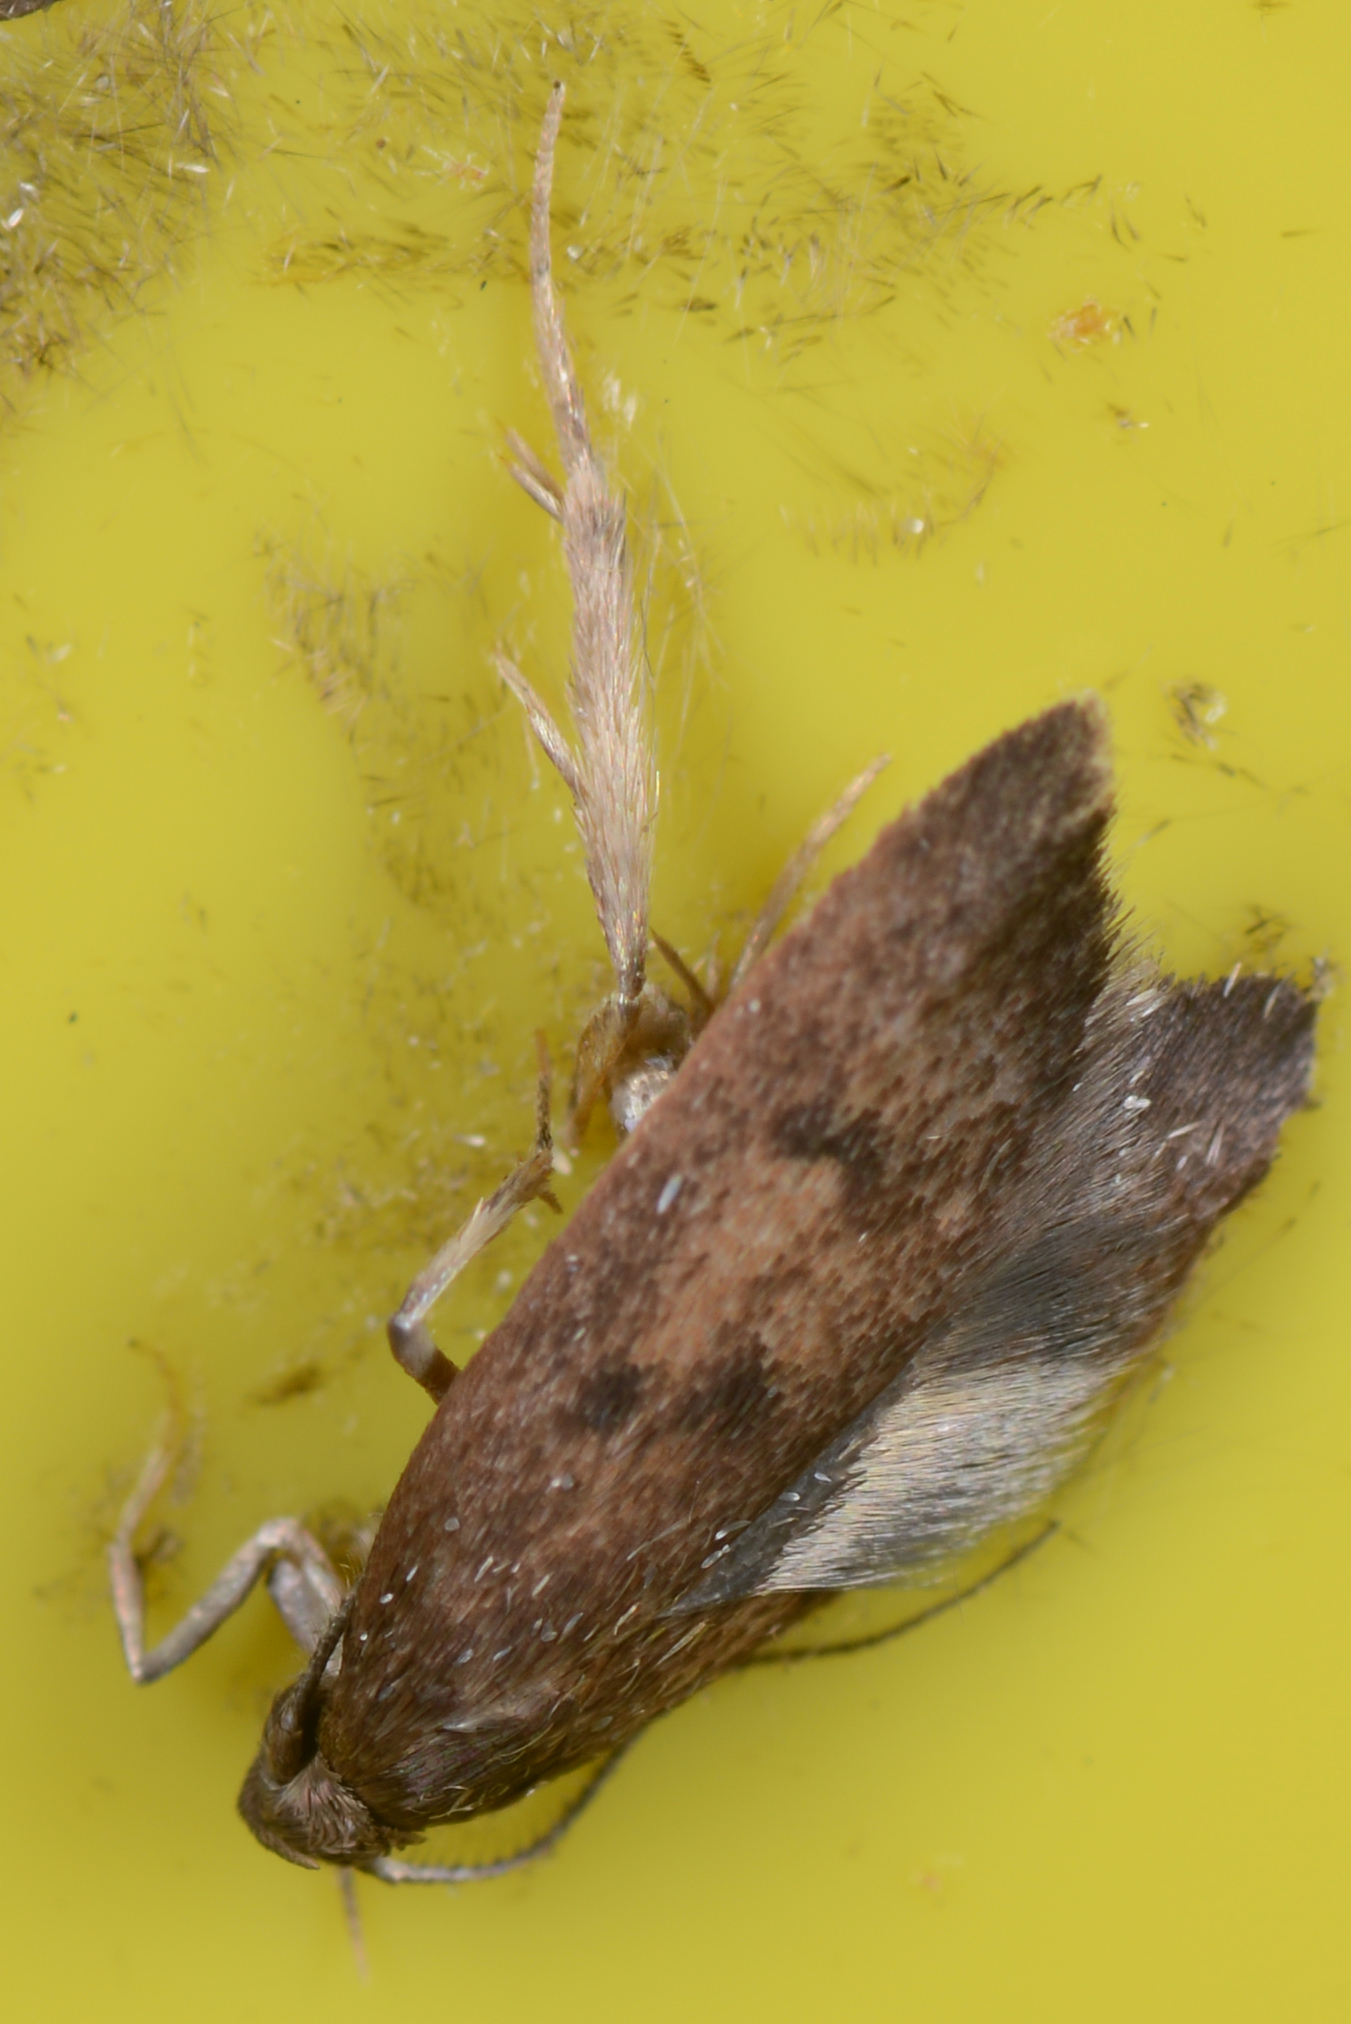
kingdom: Animalia
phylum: Arthropoda
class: Insecta
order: Lepidoptera
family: Oecophoridae
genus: Tachystola
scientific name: Tachystola acroxantha
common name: Ruddy streak
